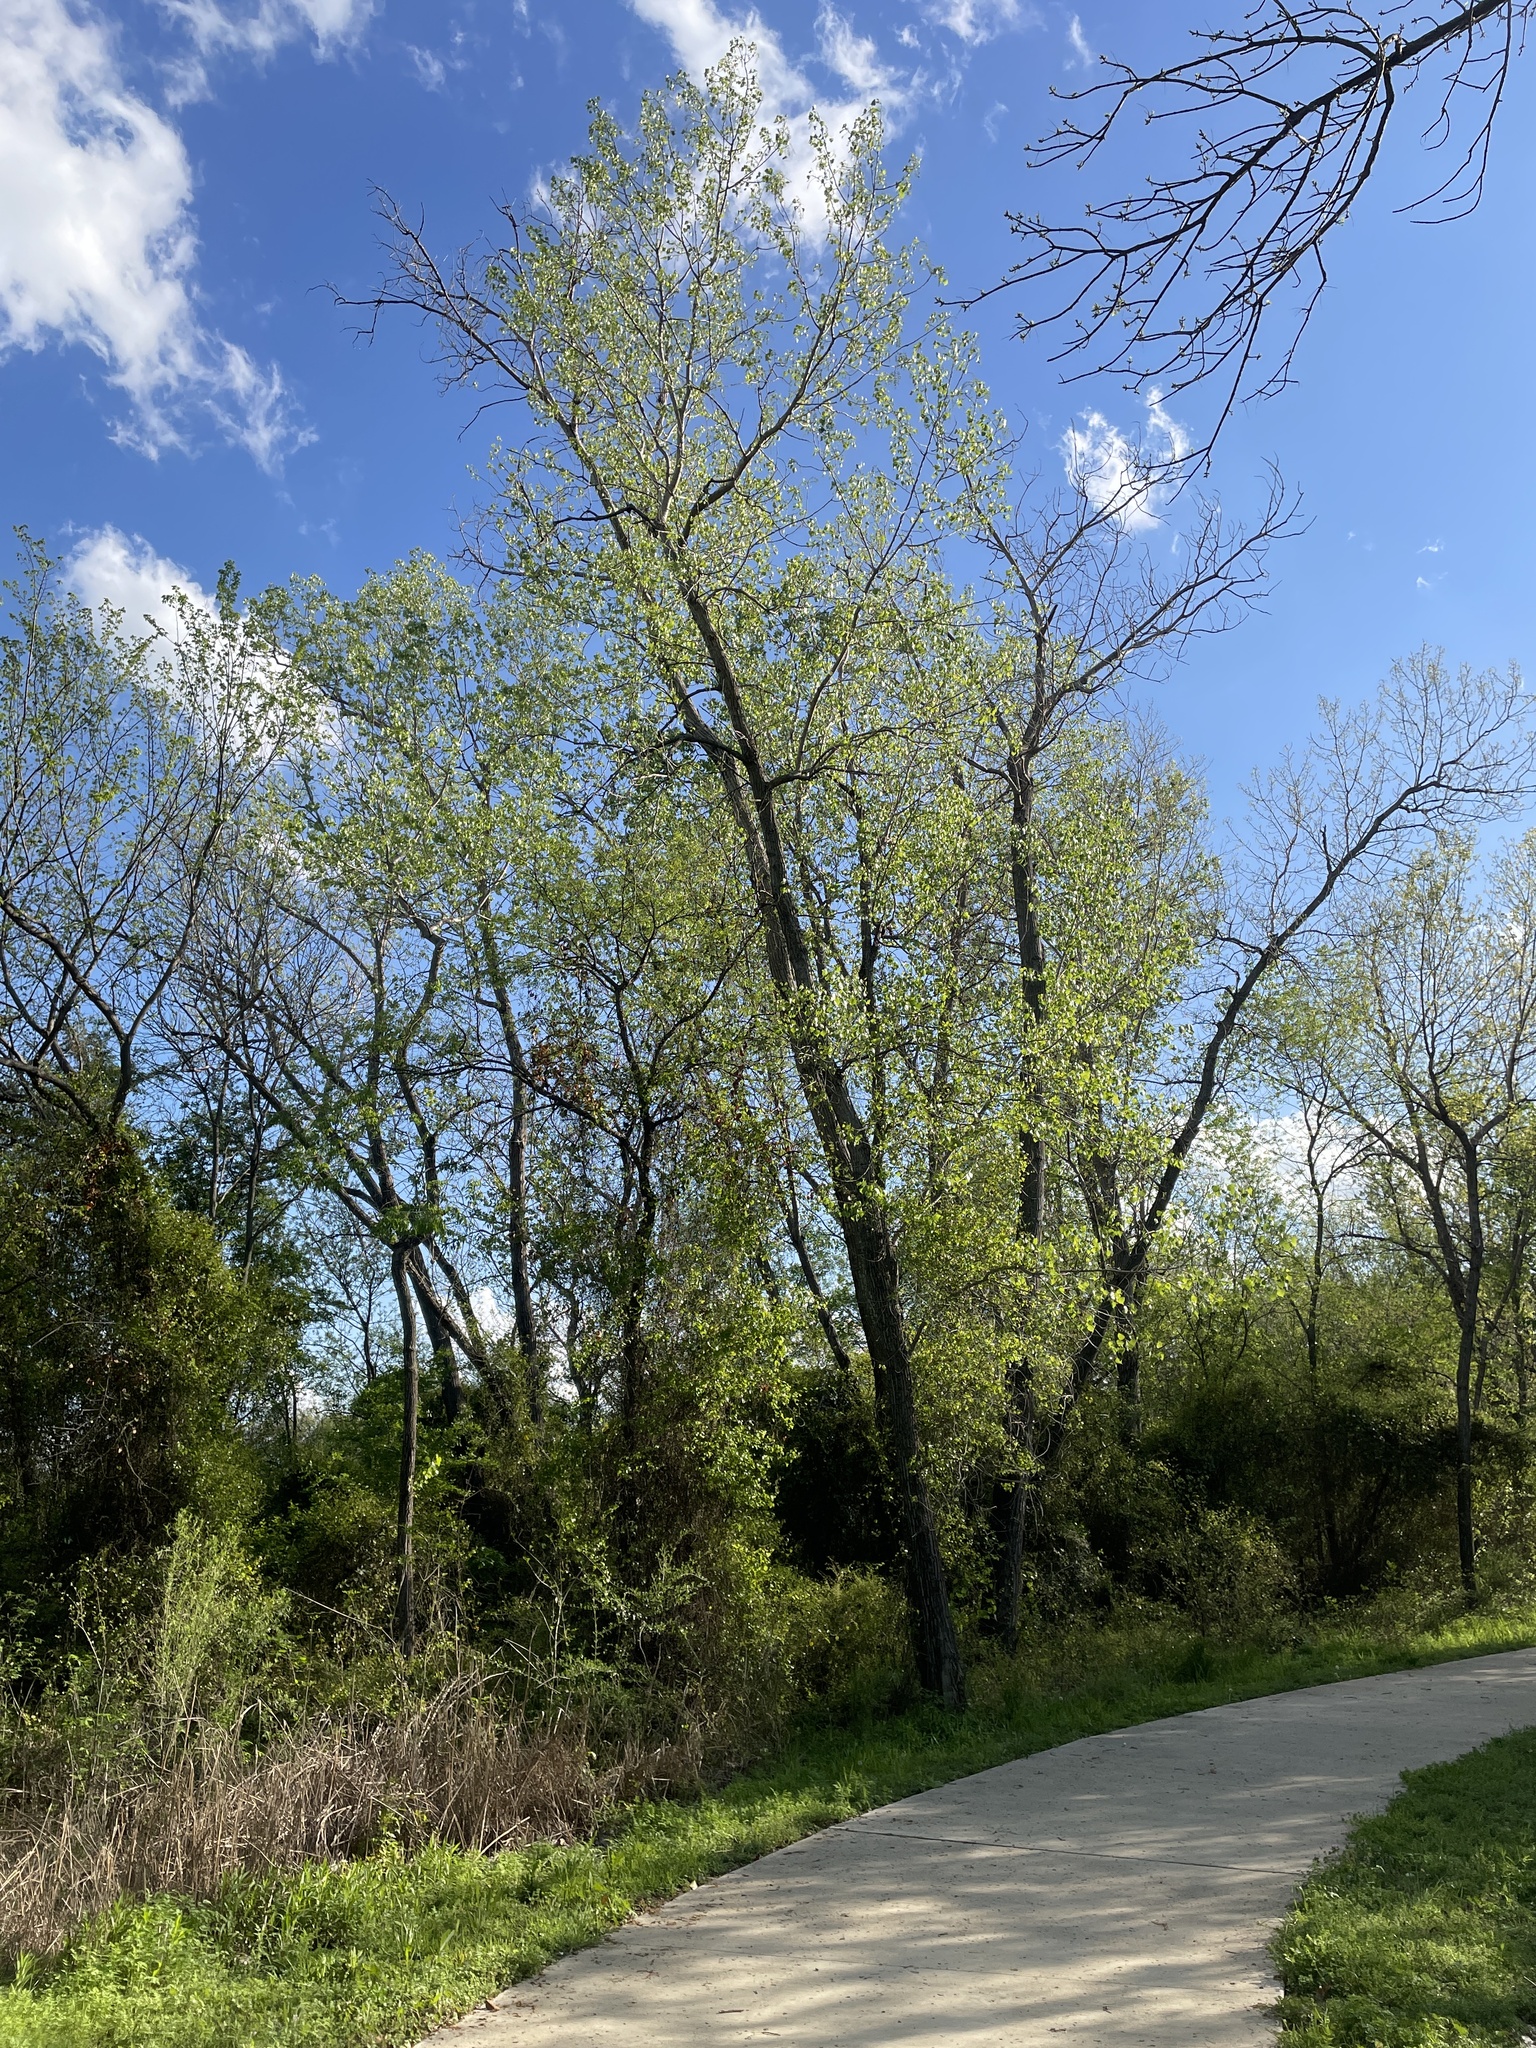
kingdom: Plantae
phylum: Tracheophyta
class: Magnoliopsida
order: Malpighiales
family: Salicaceae
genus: Populus
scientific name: Populus deltoides
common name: Eastern cottonwood
